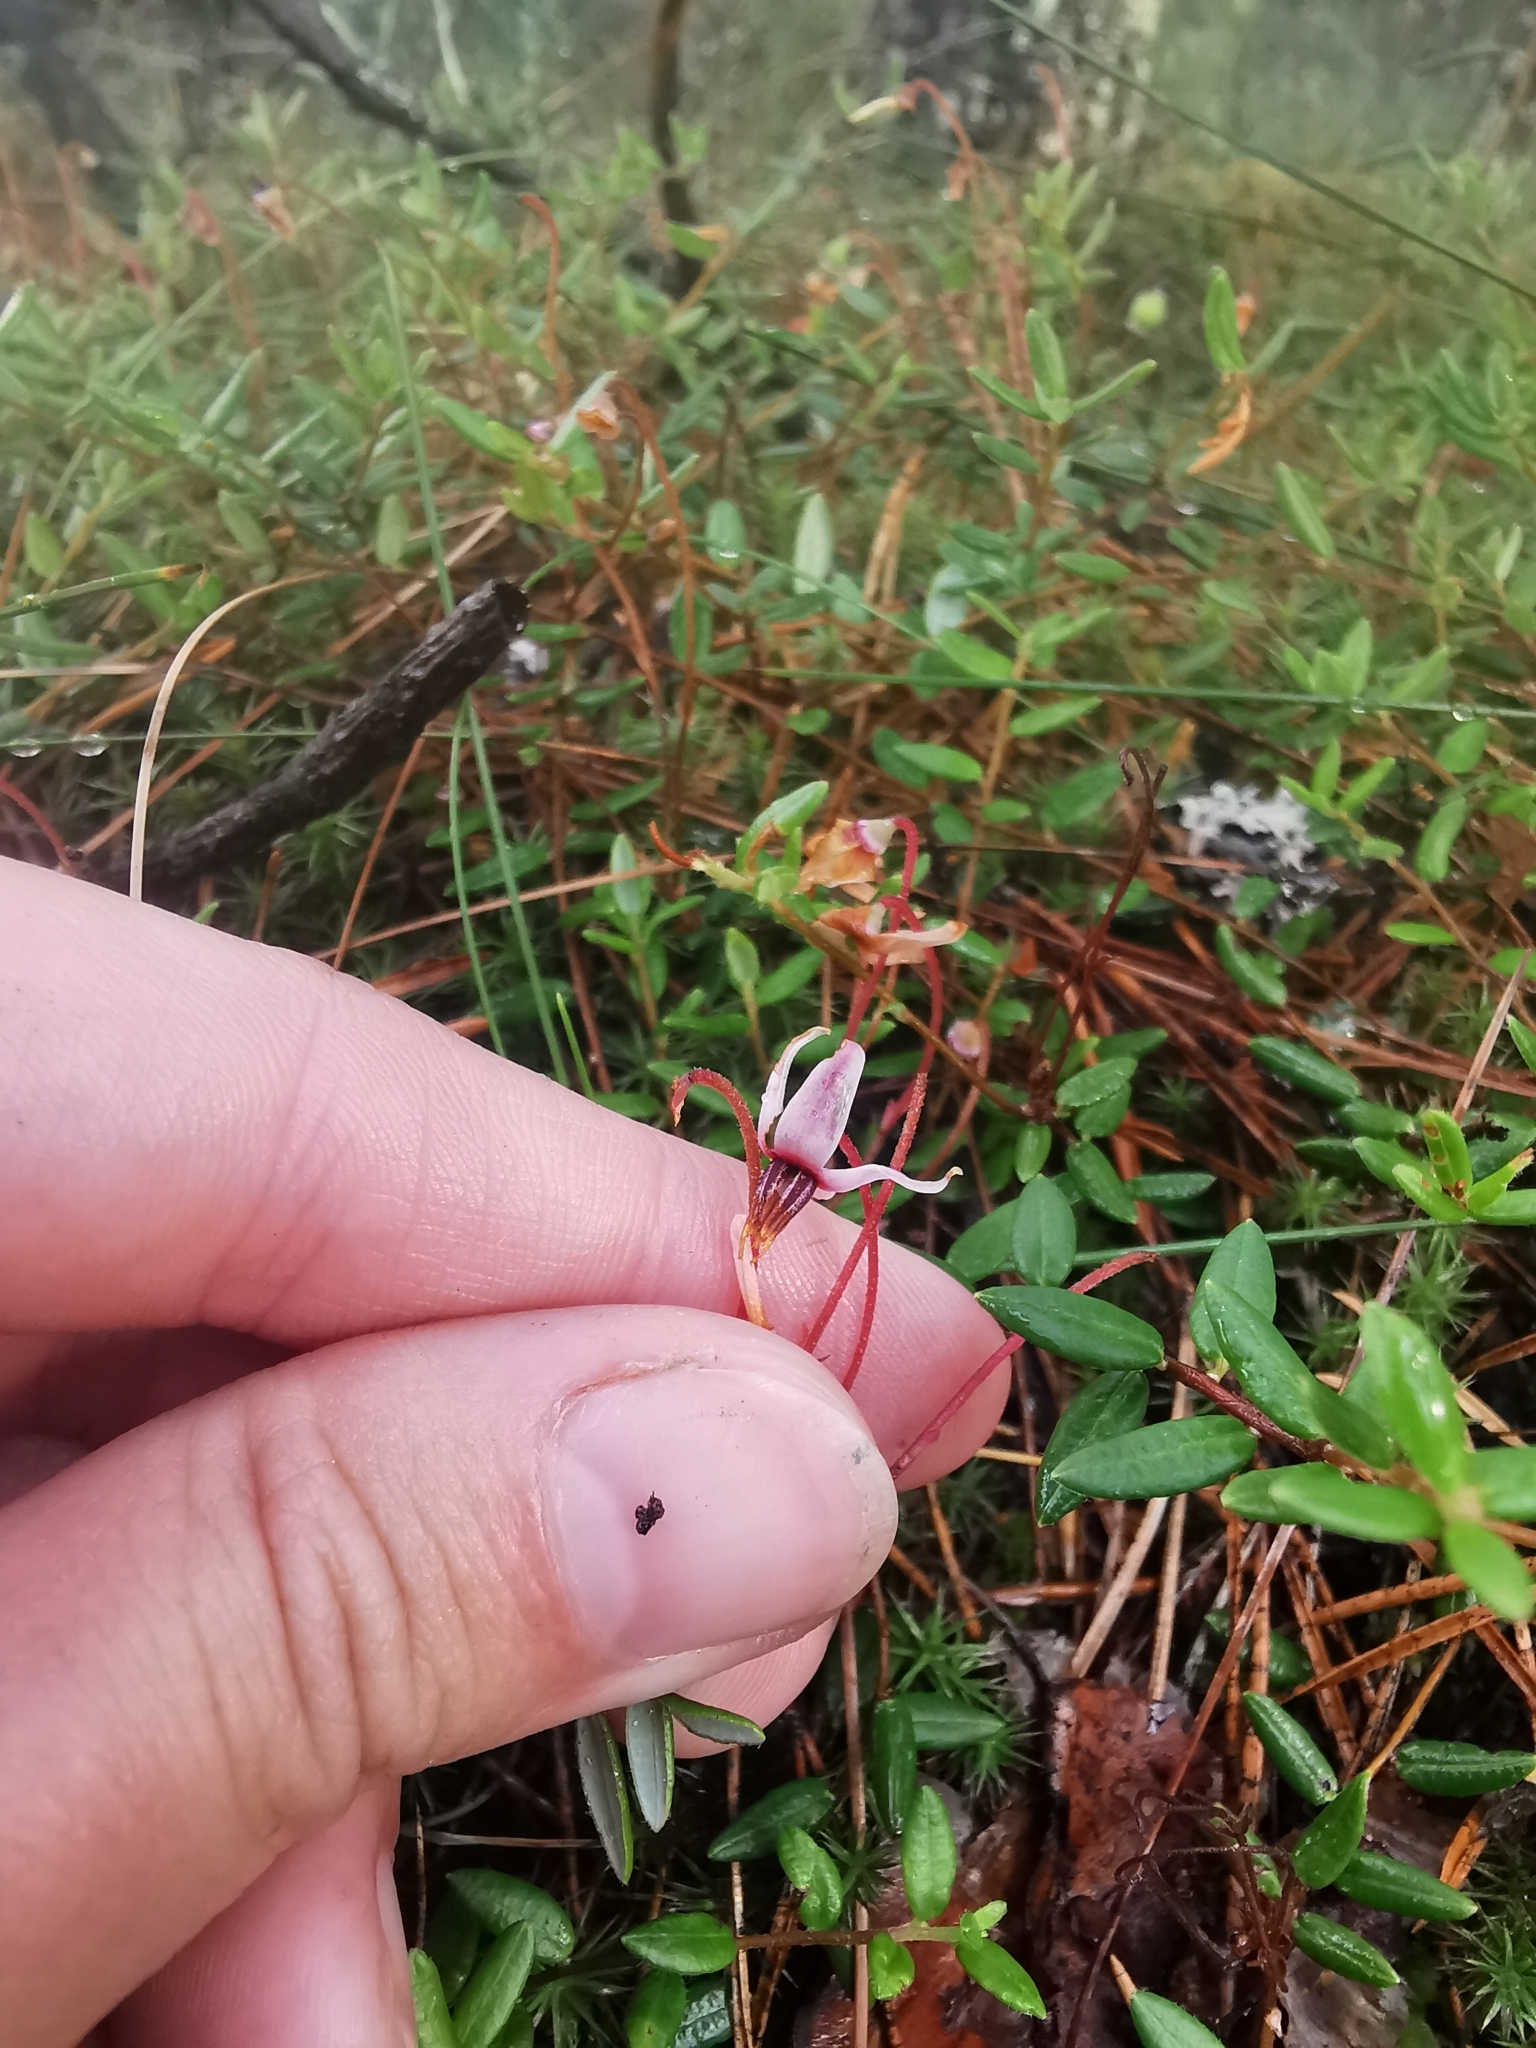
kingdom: Plantae
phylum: Tracheophyta
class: Magnoliopsida
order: Ericales
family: Ericaceae
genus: Vaccinium
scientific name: Vaccinium oxycoccos
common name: Cranberry
